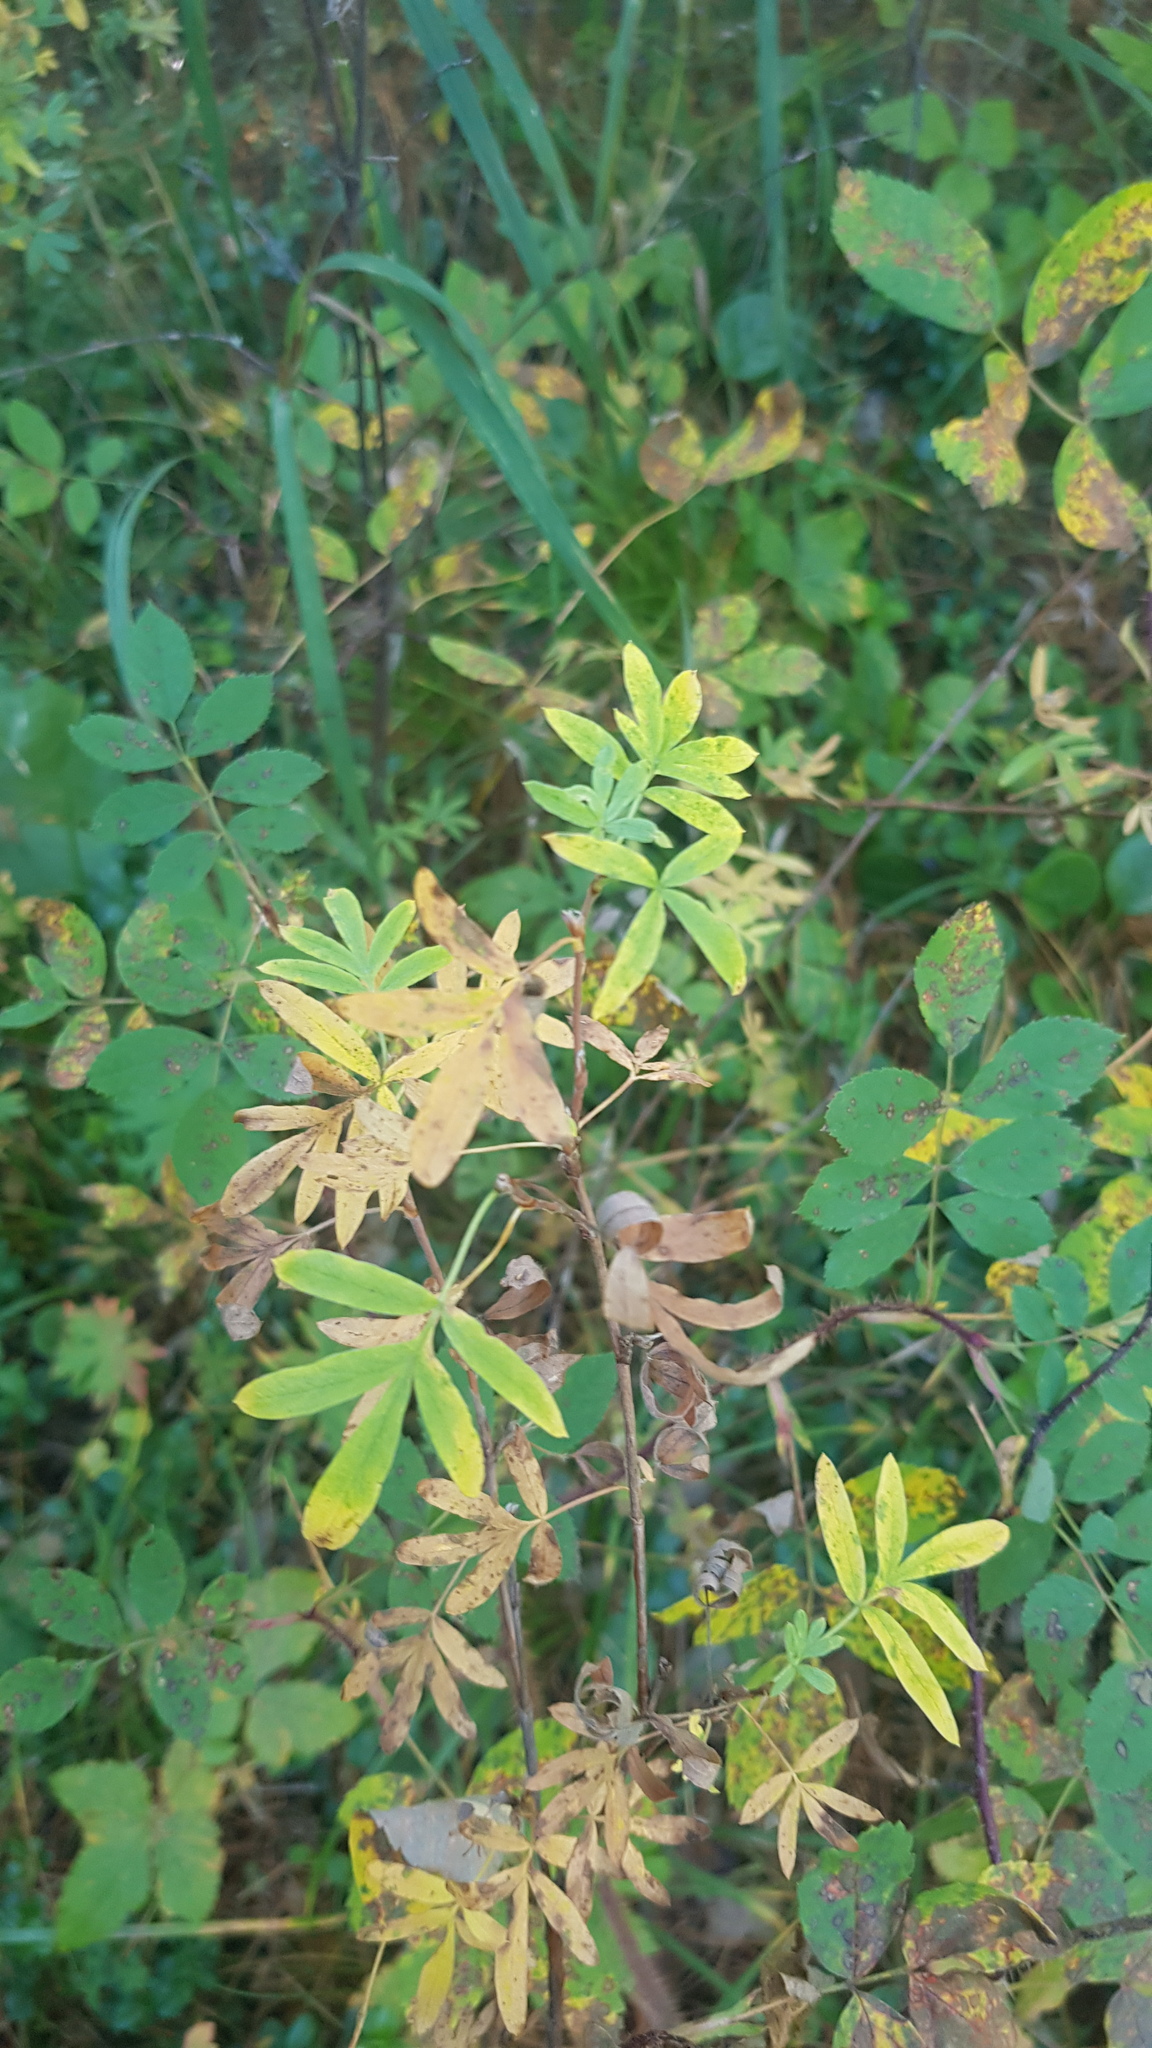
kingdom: Plantae
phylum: Tracheophyta
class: Magnoliopsida
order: Rosales
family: Rosaceae
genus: Dasiphora
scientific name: Dasiphora fruticosa
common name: Shrubby cinquefoil
